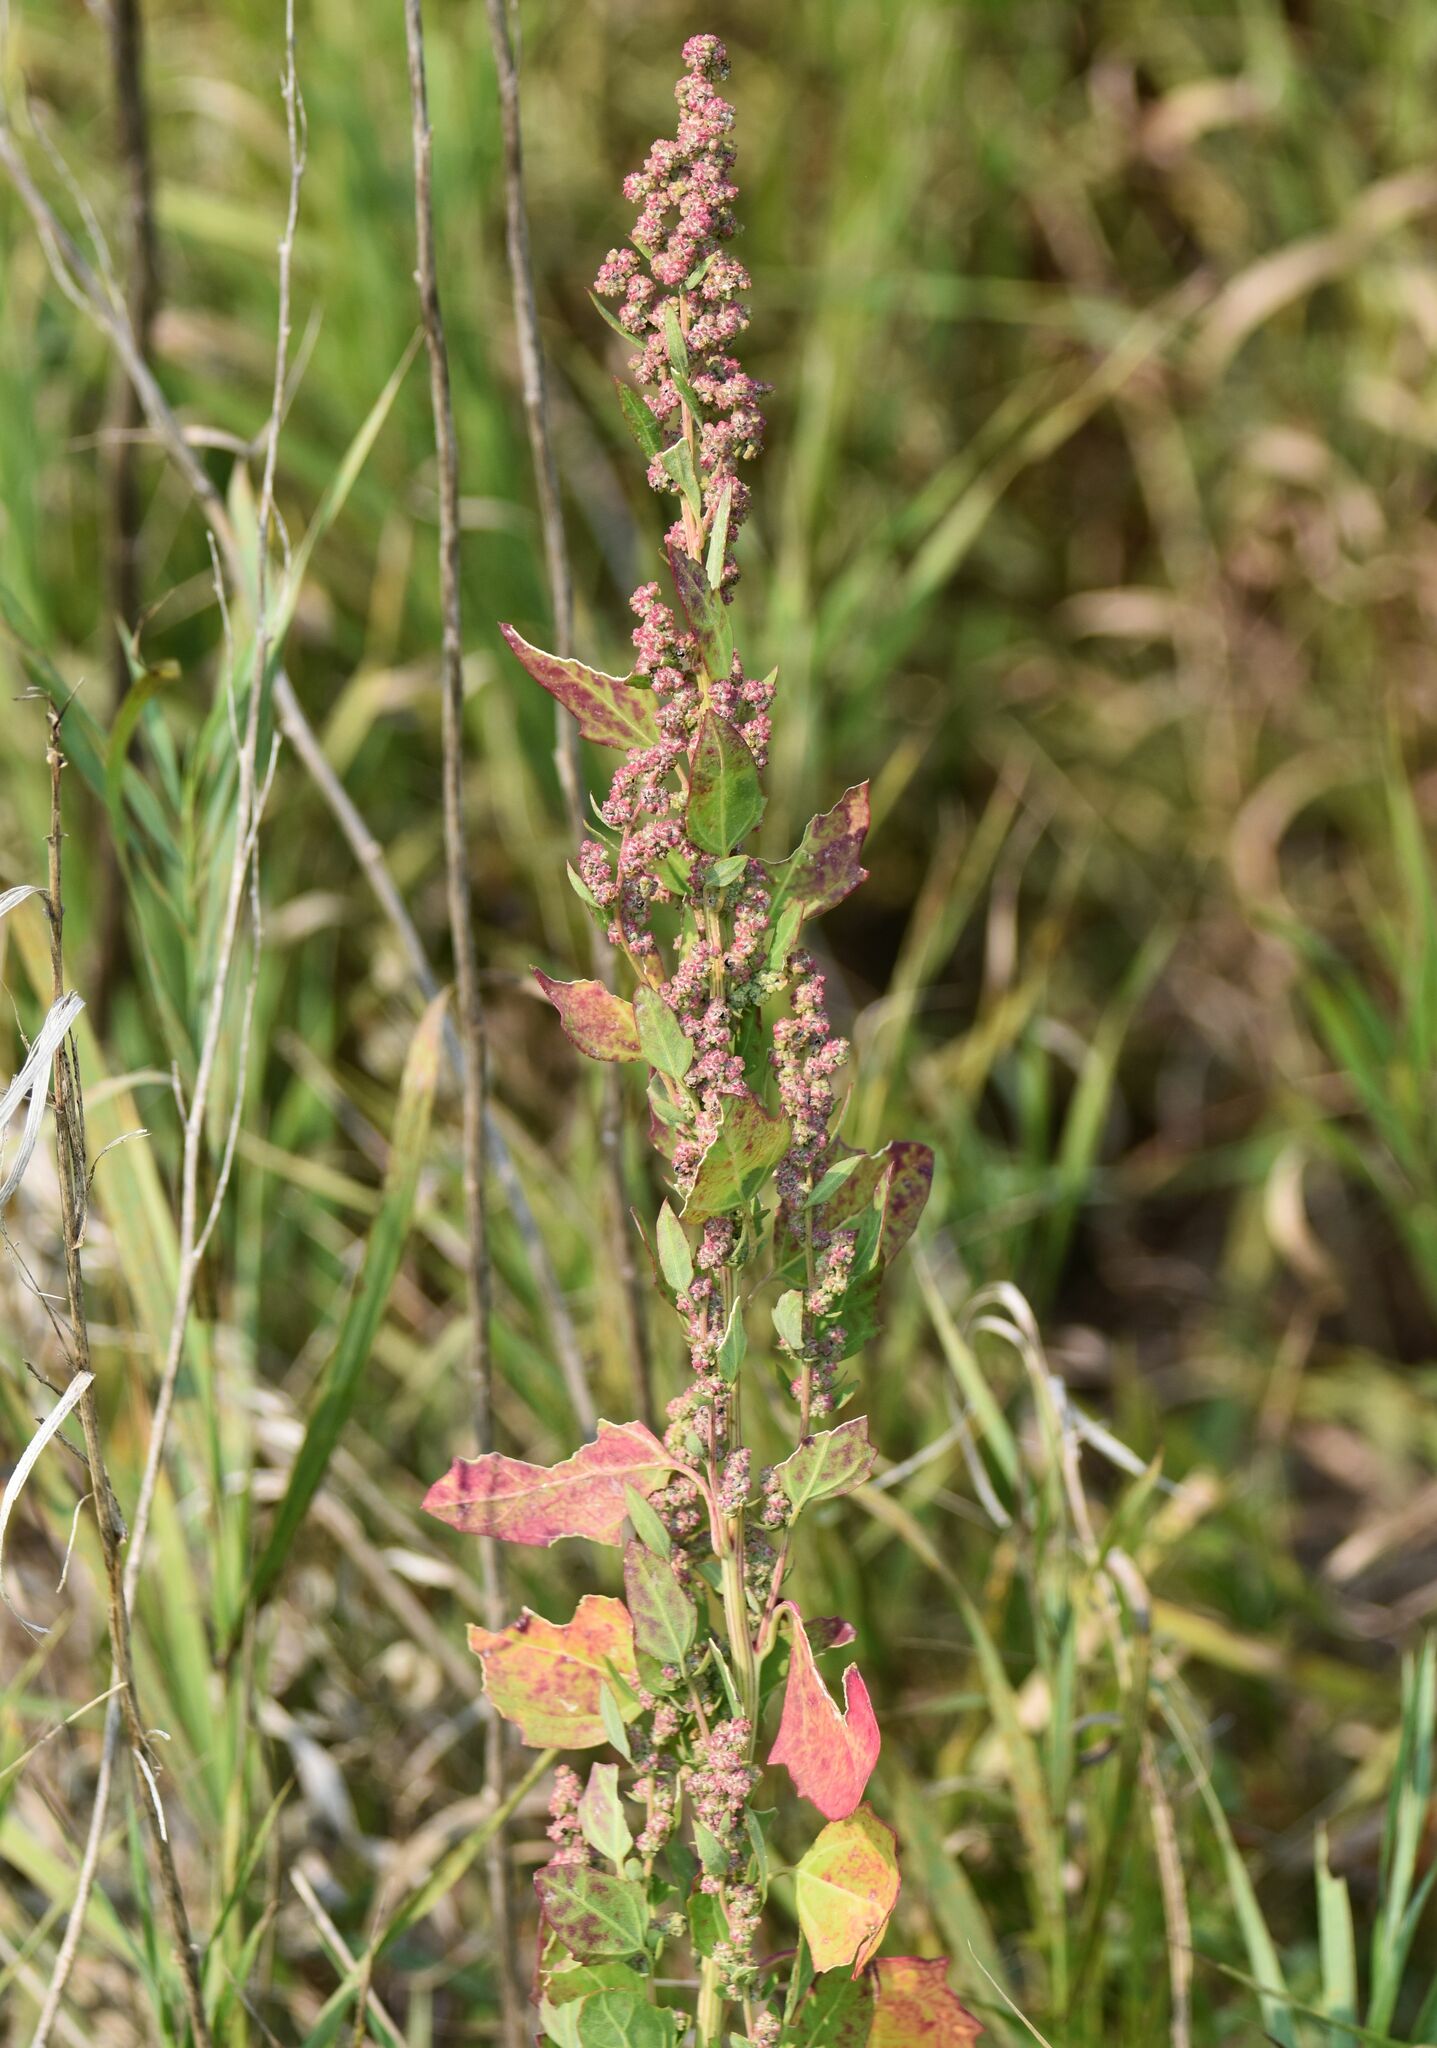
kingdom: Plantae
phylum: Tracheophyta
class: Magnoliopsida
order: Caryophyllales
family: Amaranthaceae
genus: Chenopodium
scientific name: Chenopodium album
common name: Fat-hen
